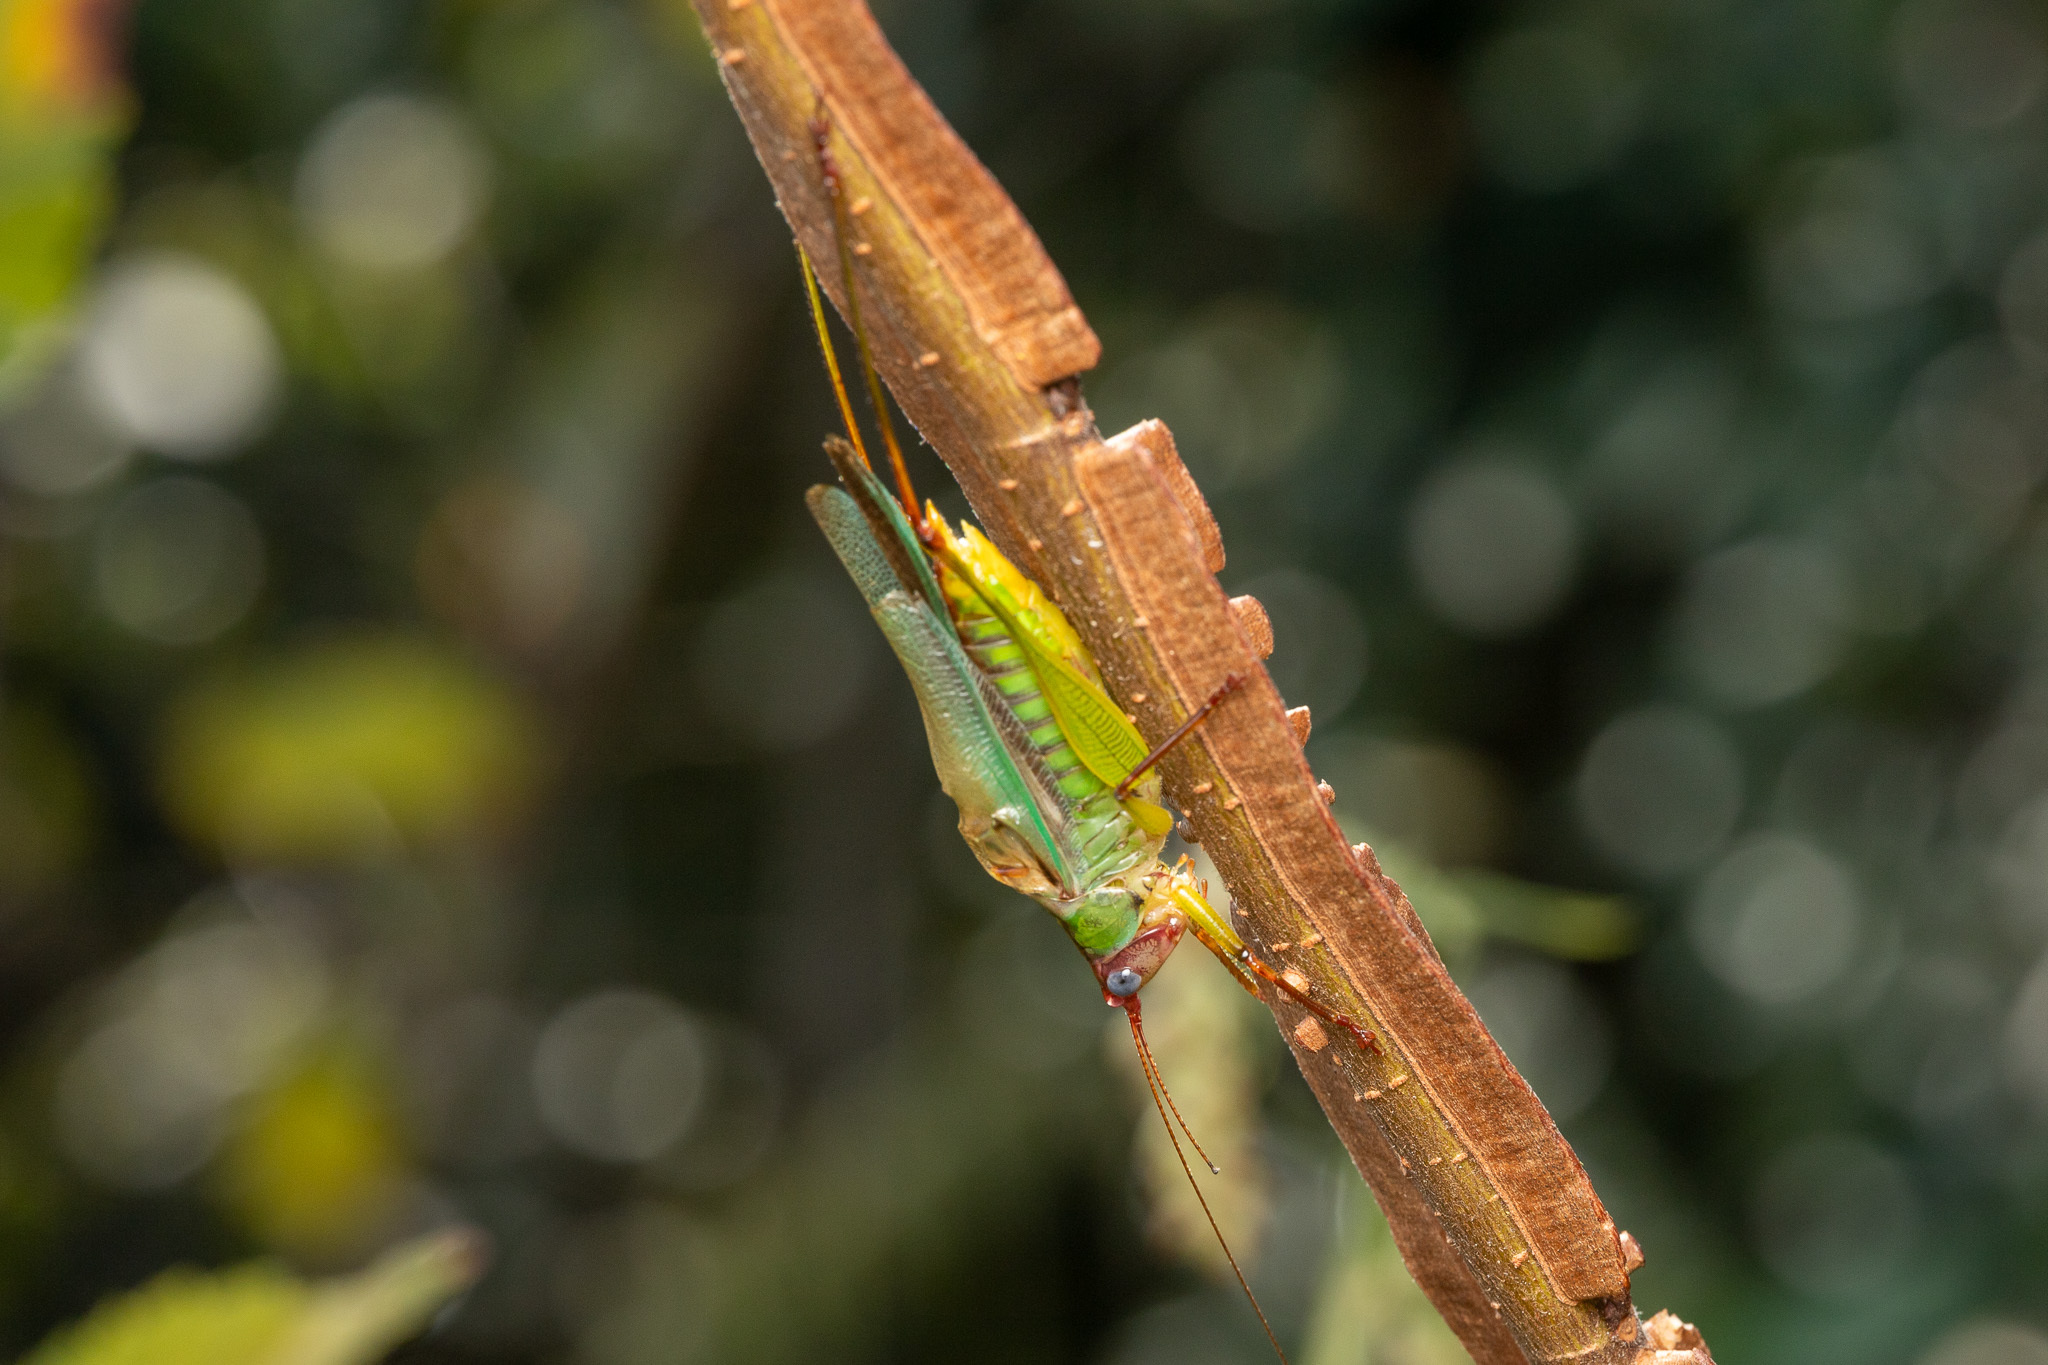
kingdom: Animalia
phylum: Arthropoda
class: Insecta
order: Orthoptera
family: Tettigoniidae
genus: Orchelimum
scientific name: Orchelimum pulchellum
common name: Handsome meadow katydid
